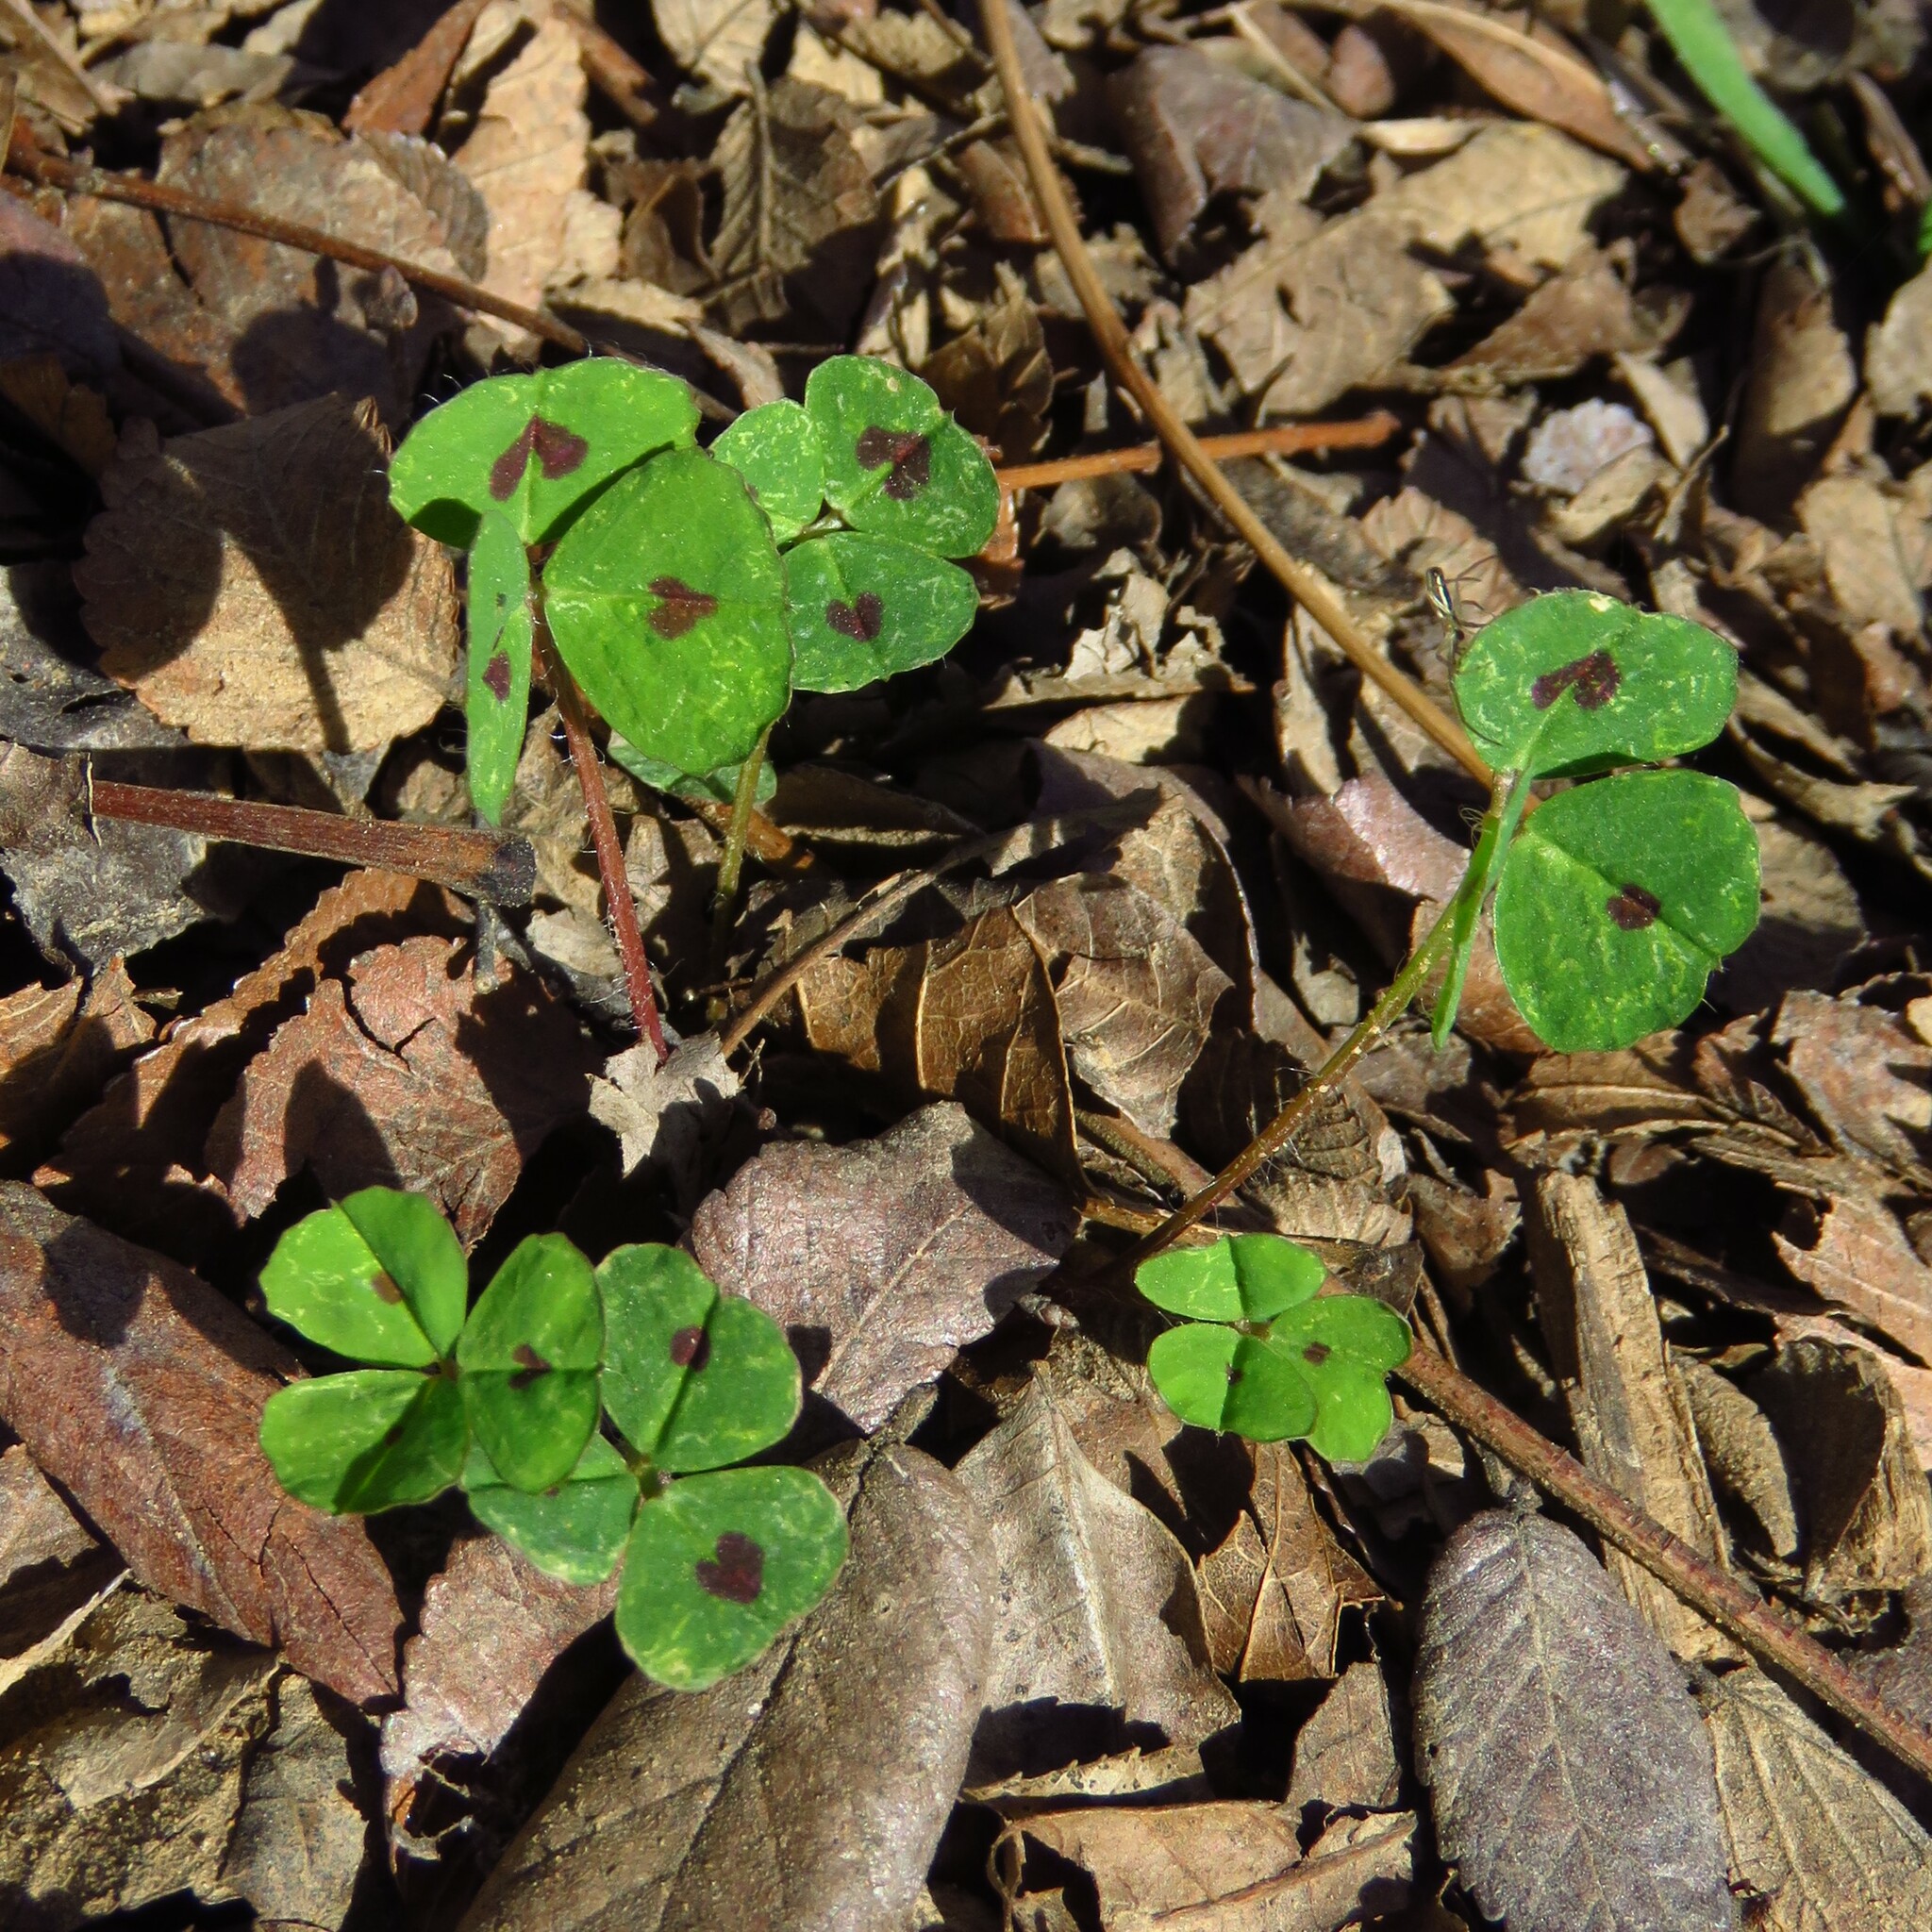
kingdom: Plantae
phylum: Tracheophyta
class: Magnoliopsida
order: Fabales
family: Fabaceae
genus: Medicago
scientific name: Medicago arabica
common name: Spotted medick
